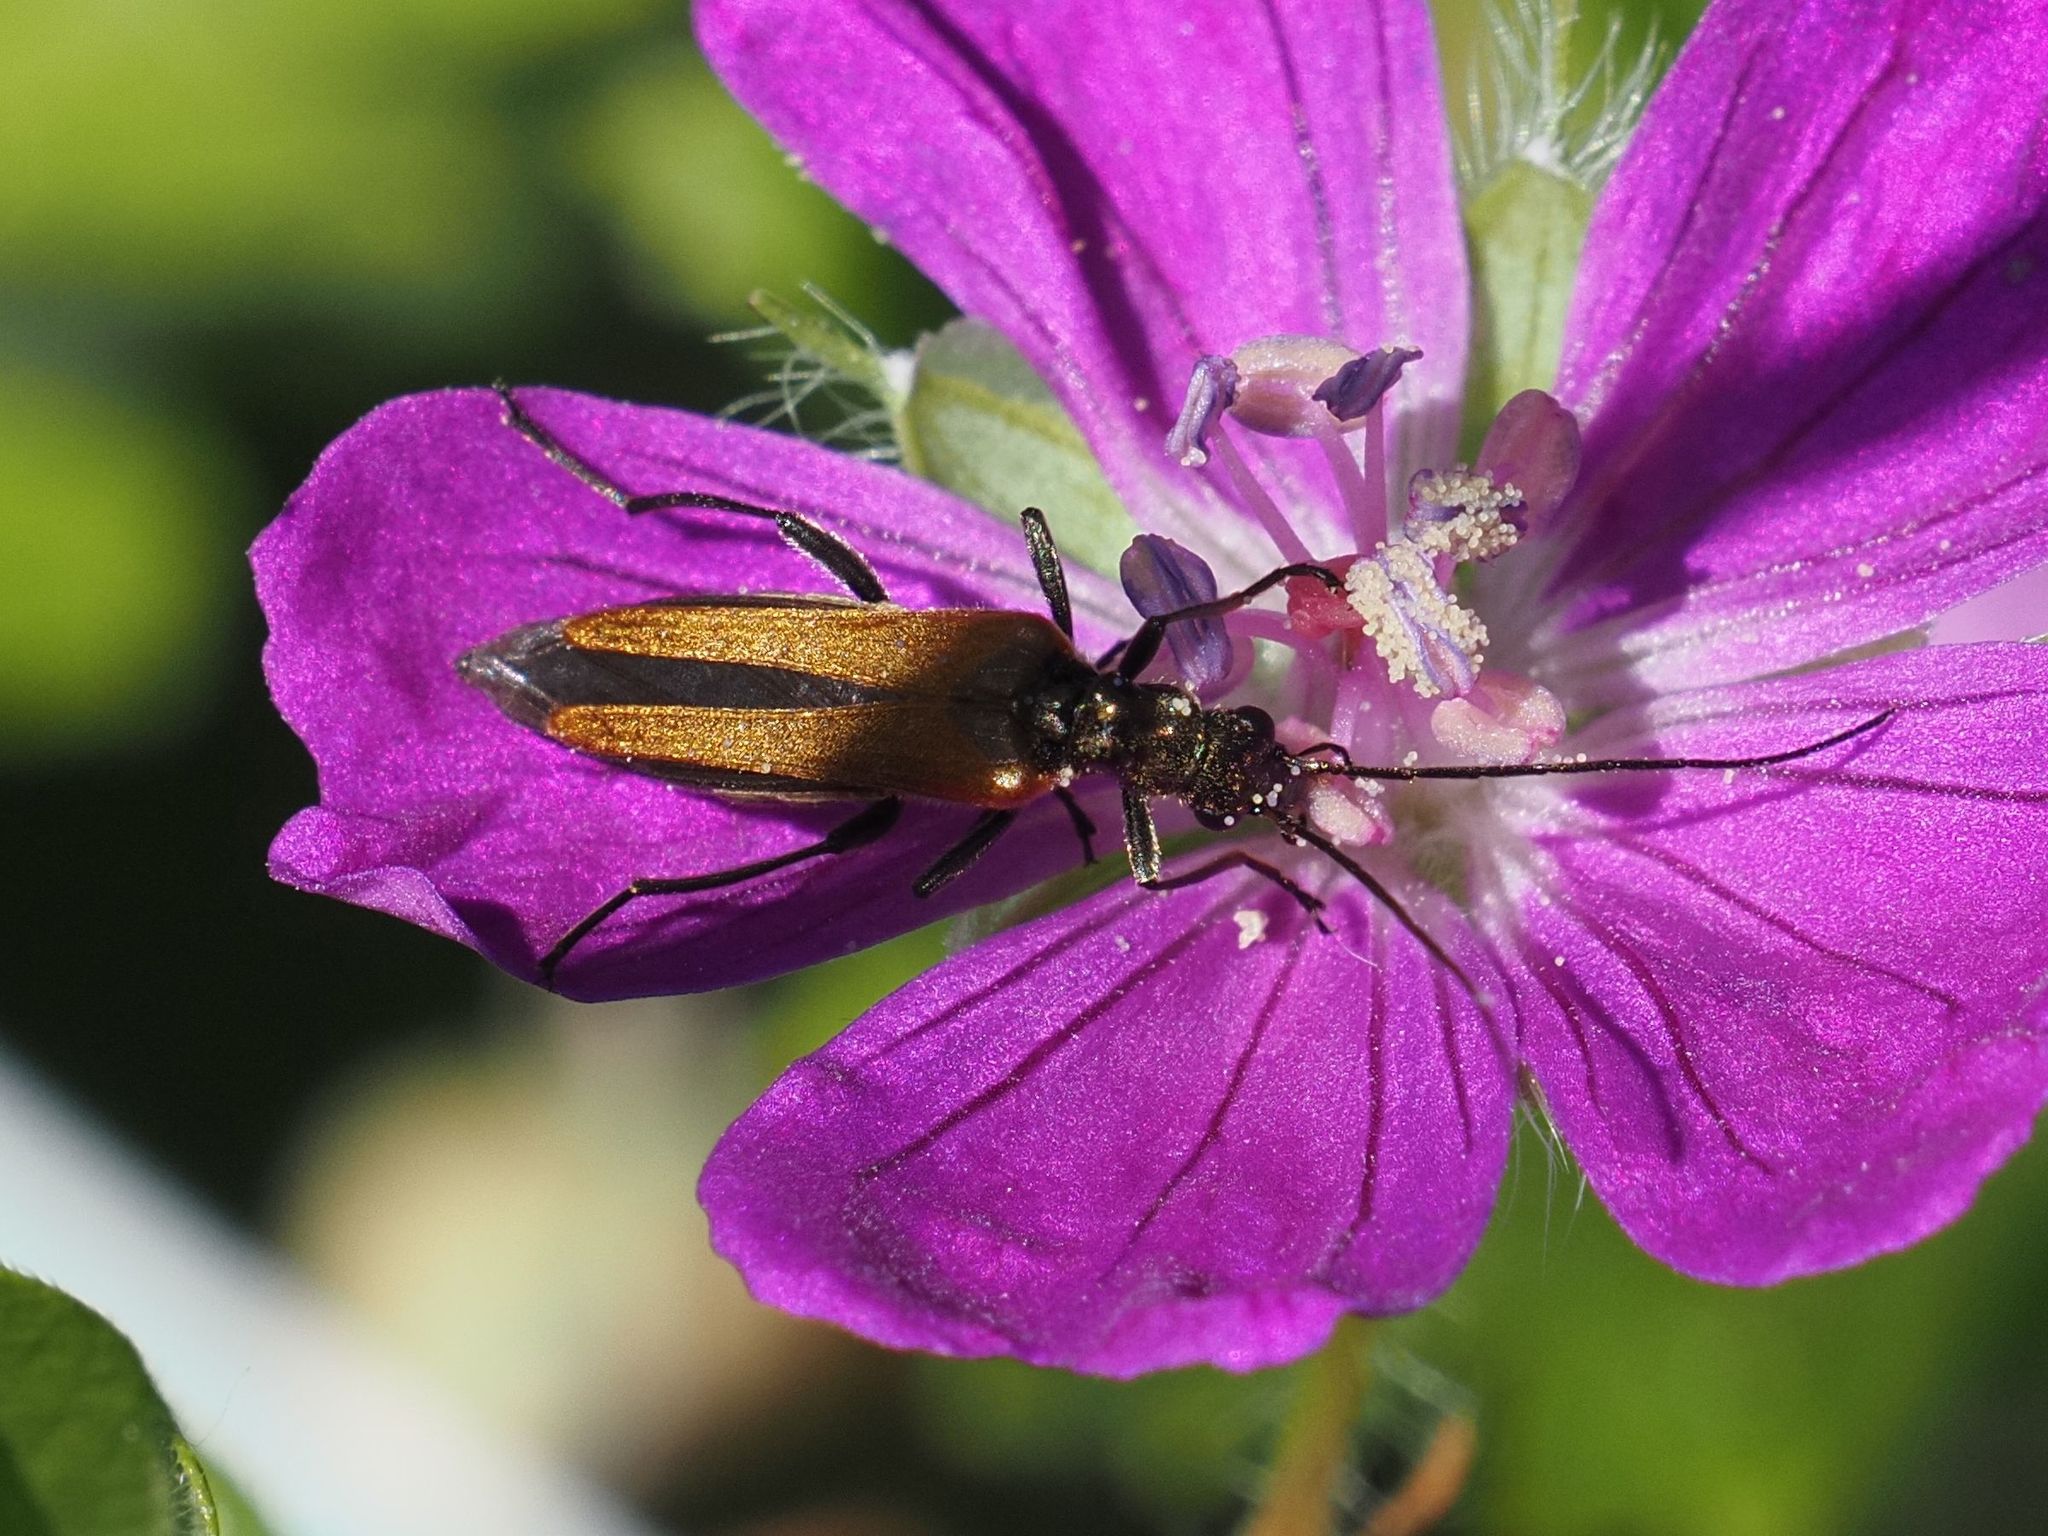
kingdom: Animalia
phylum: Arthropoda
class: Insecta
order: Coleoptera
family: Oedemeridae
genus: Oedemera
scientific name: Oedemera femorata
